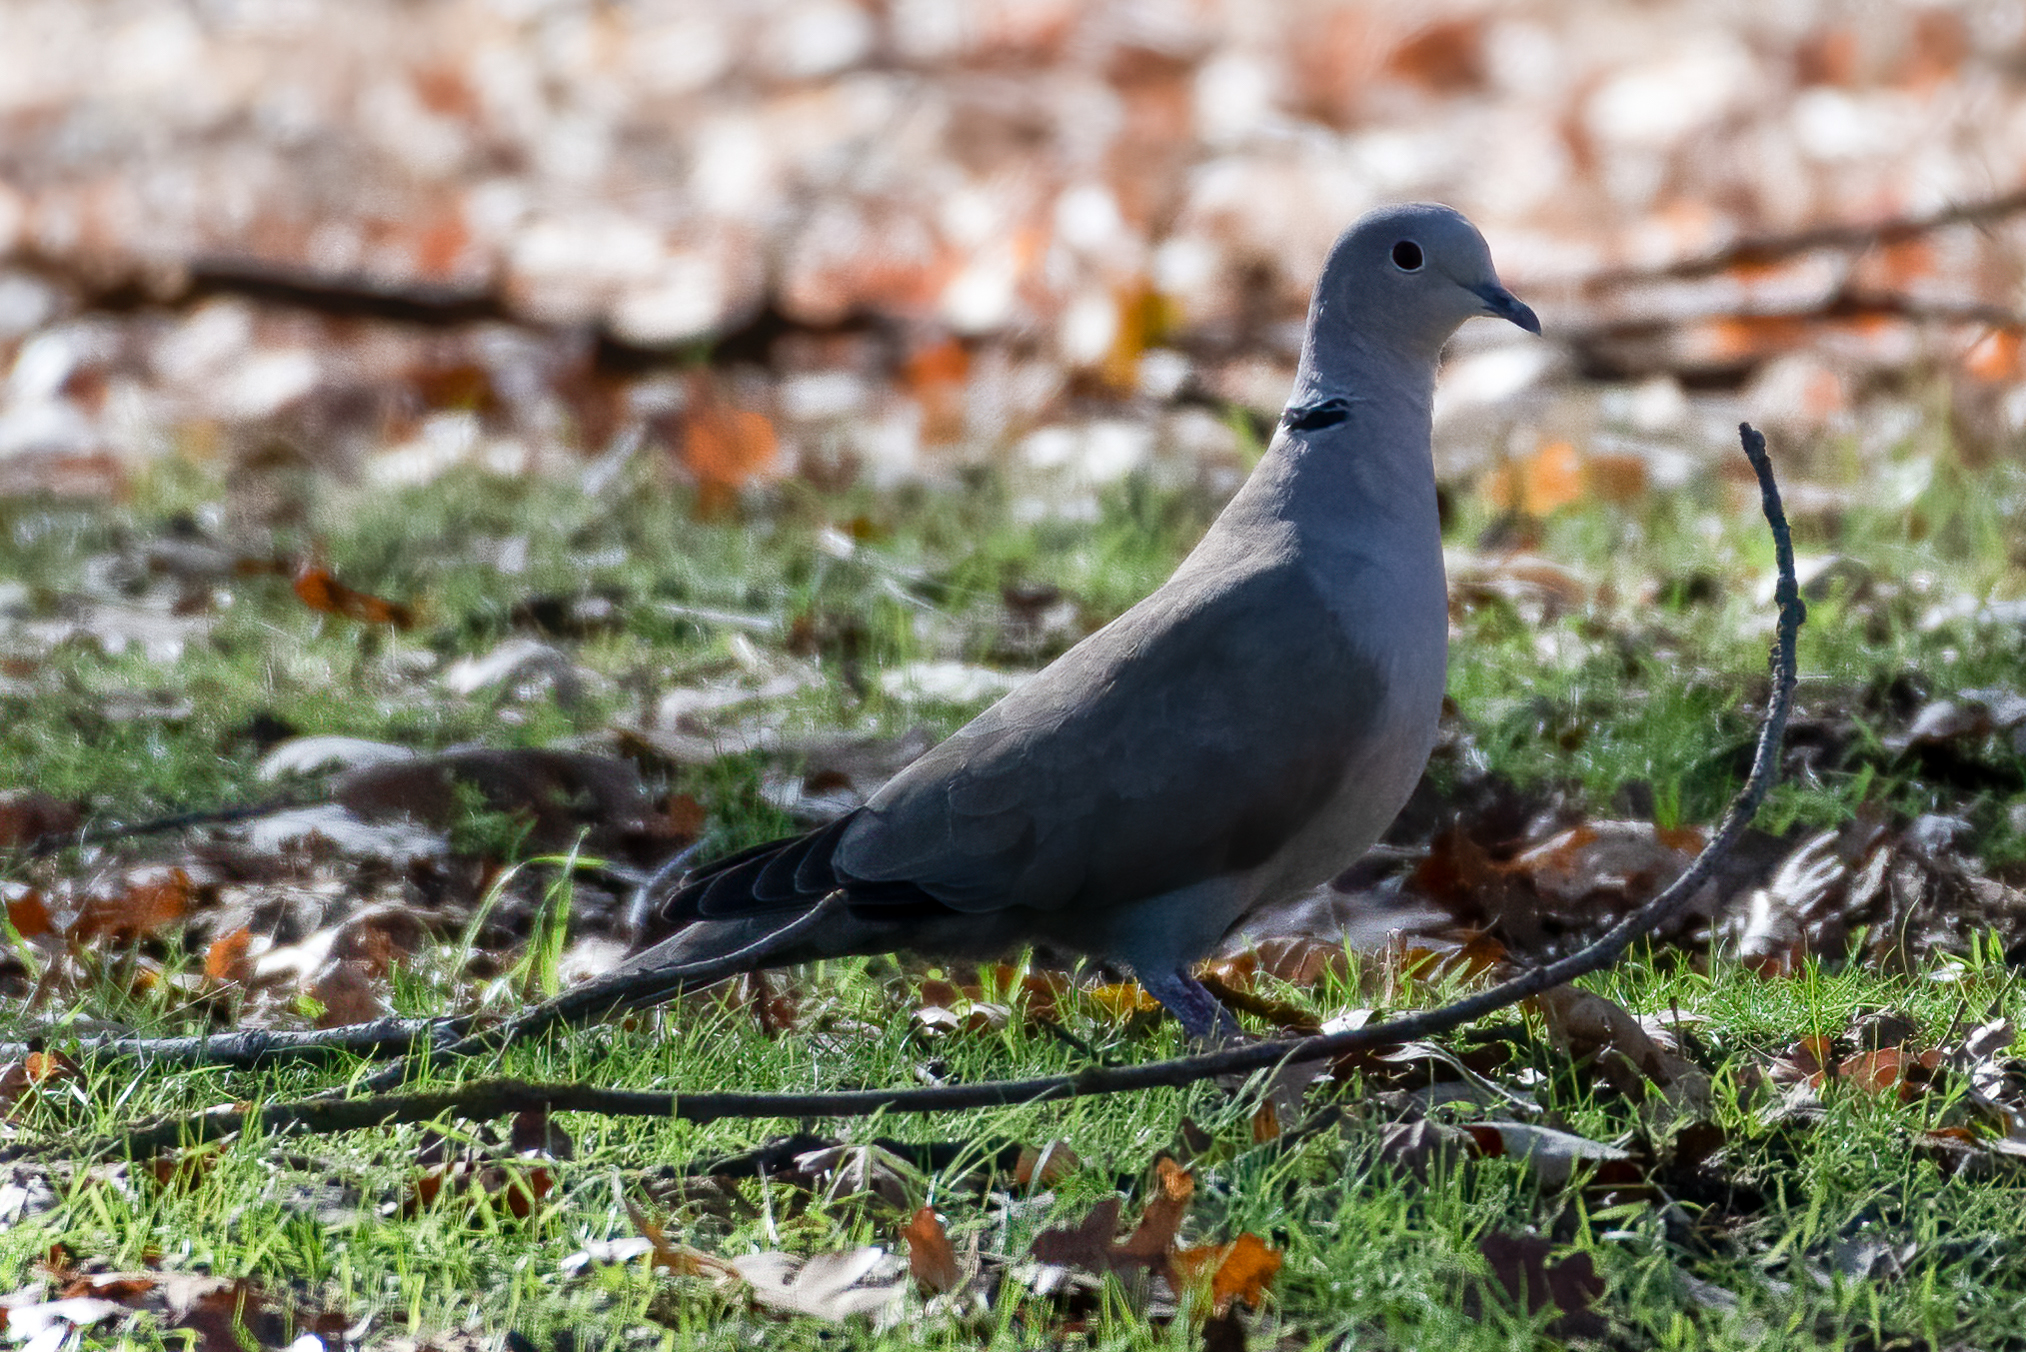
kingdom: Animalia
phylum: Chordata
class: Aves
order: Columbiformes
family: Columbidae
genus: Streptopelia
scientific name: Streptopelia decaocto
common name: Eurasian collared dove
